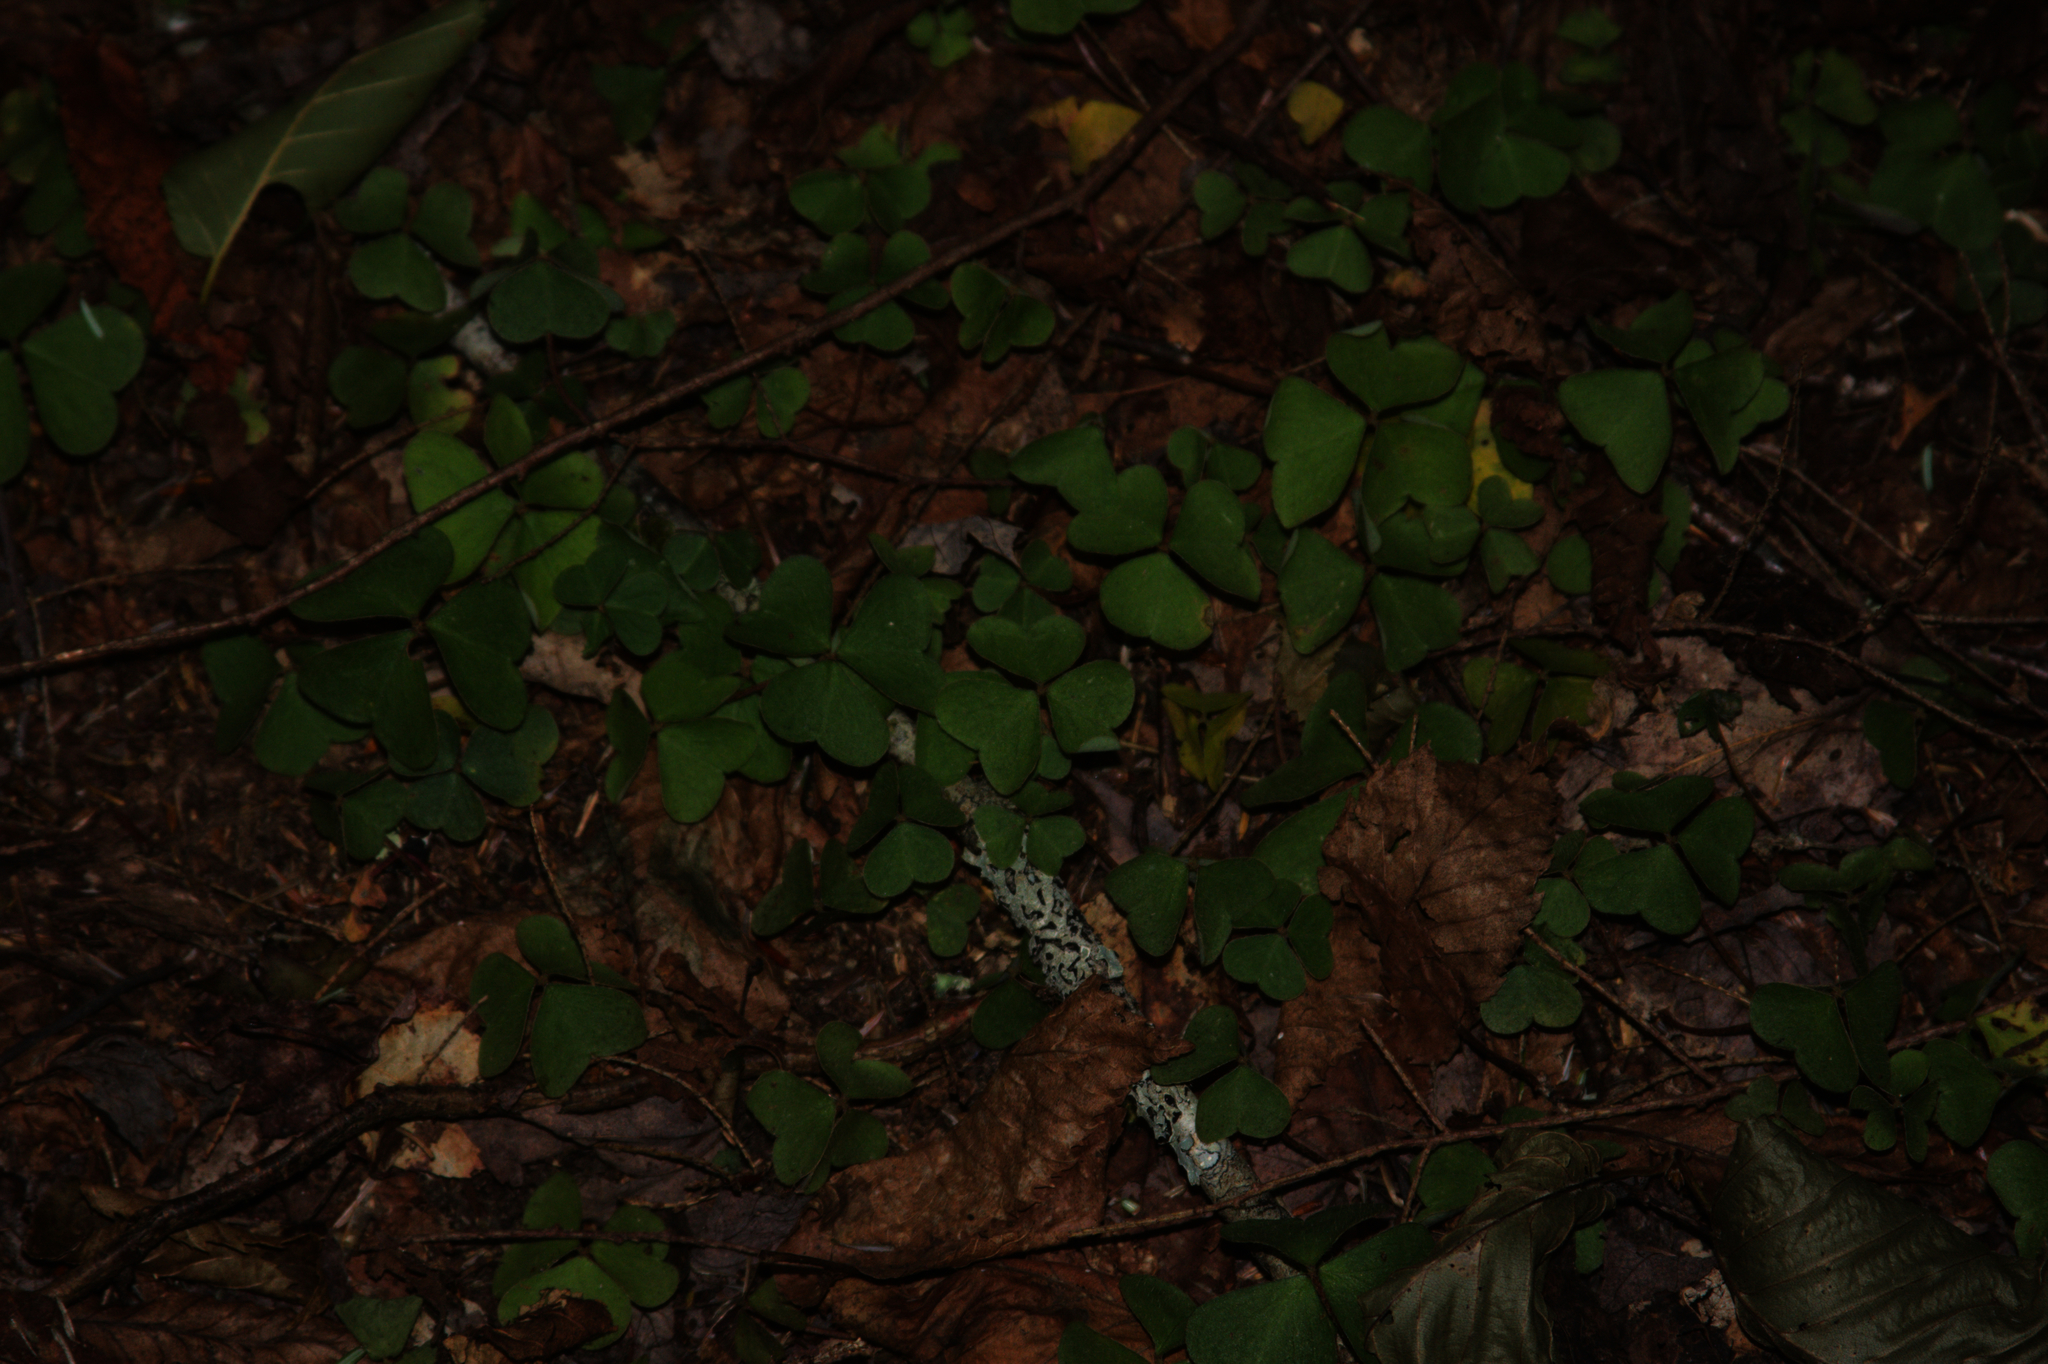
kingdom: Plantae
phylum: Tracheophyta
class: Magnoliopsida
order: Oxalidales
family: Oxalidaceae
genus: Oxalis
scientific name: Oxalis montana
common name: American wood-sorrel
